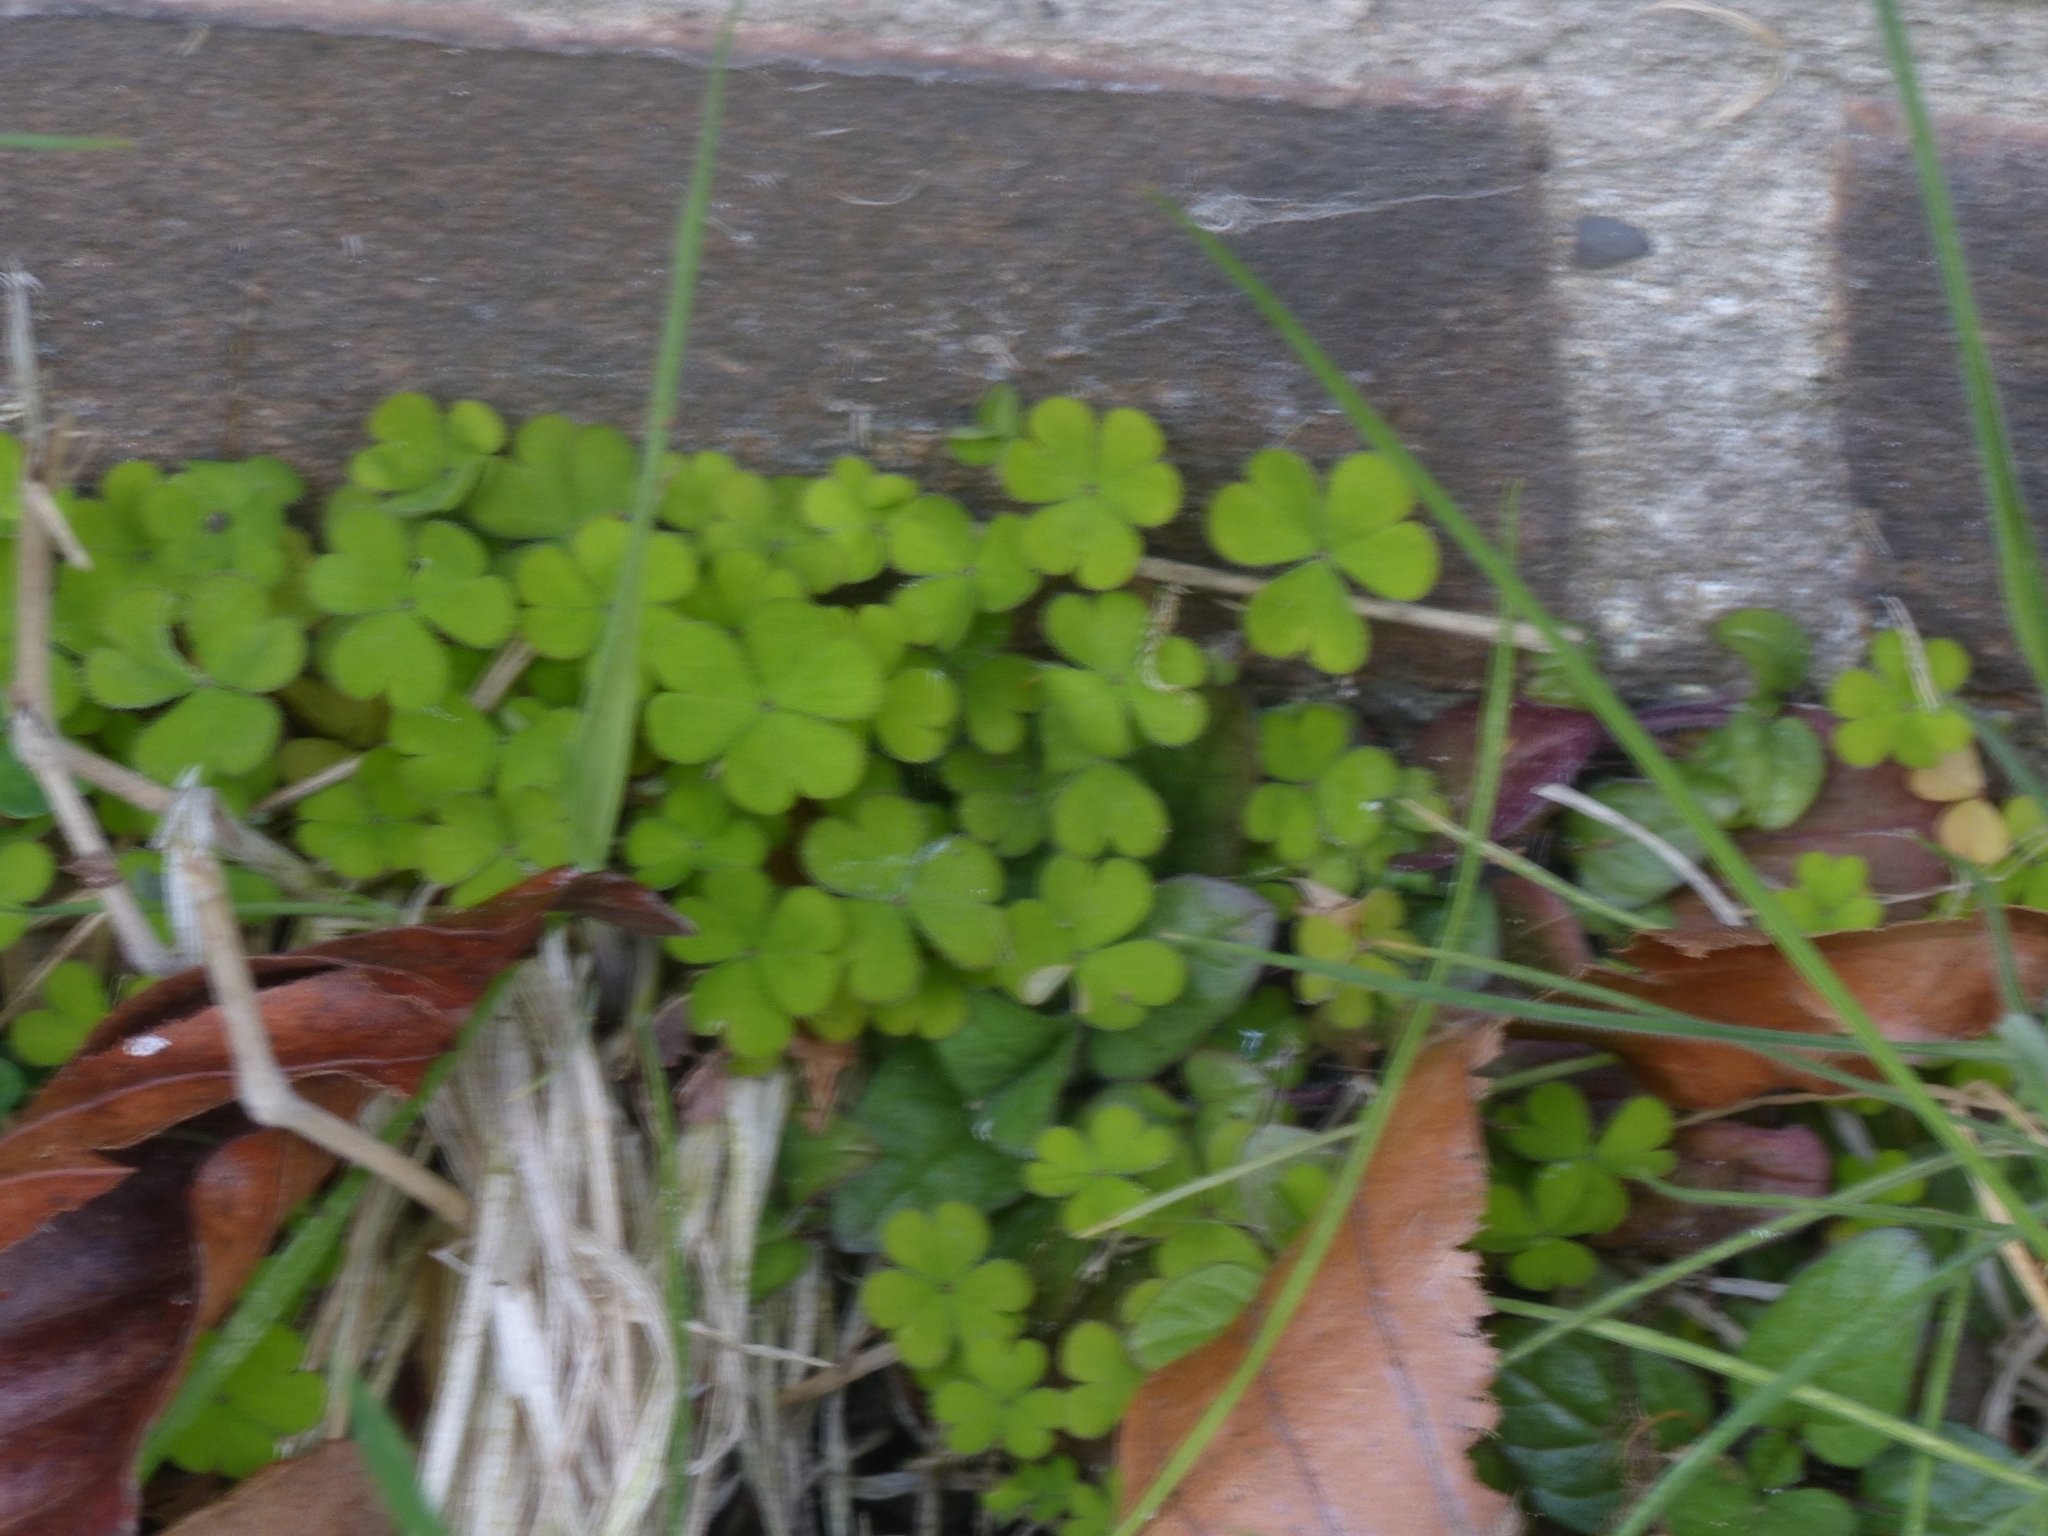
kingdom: Plantae
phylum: Tracheophyta
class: Magnoliopsida
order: Oxalidales
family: Oxalidaceae
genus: Oxalis
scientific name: Oxalis exilis
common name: Least yellow-sorrel
